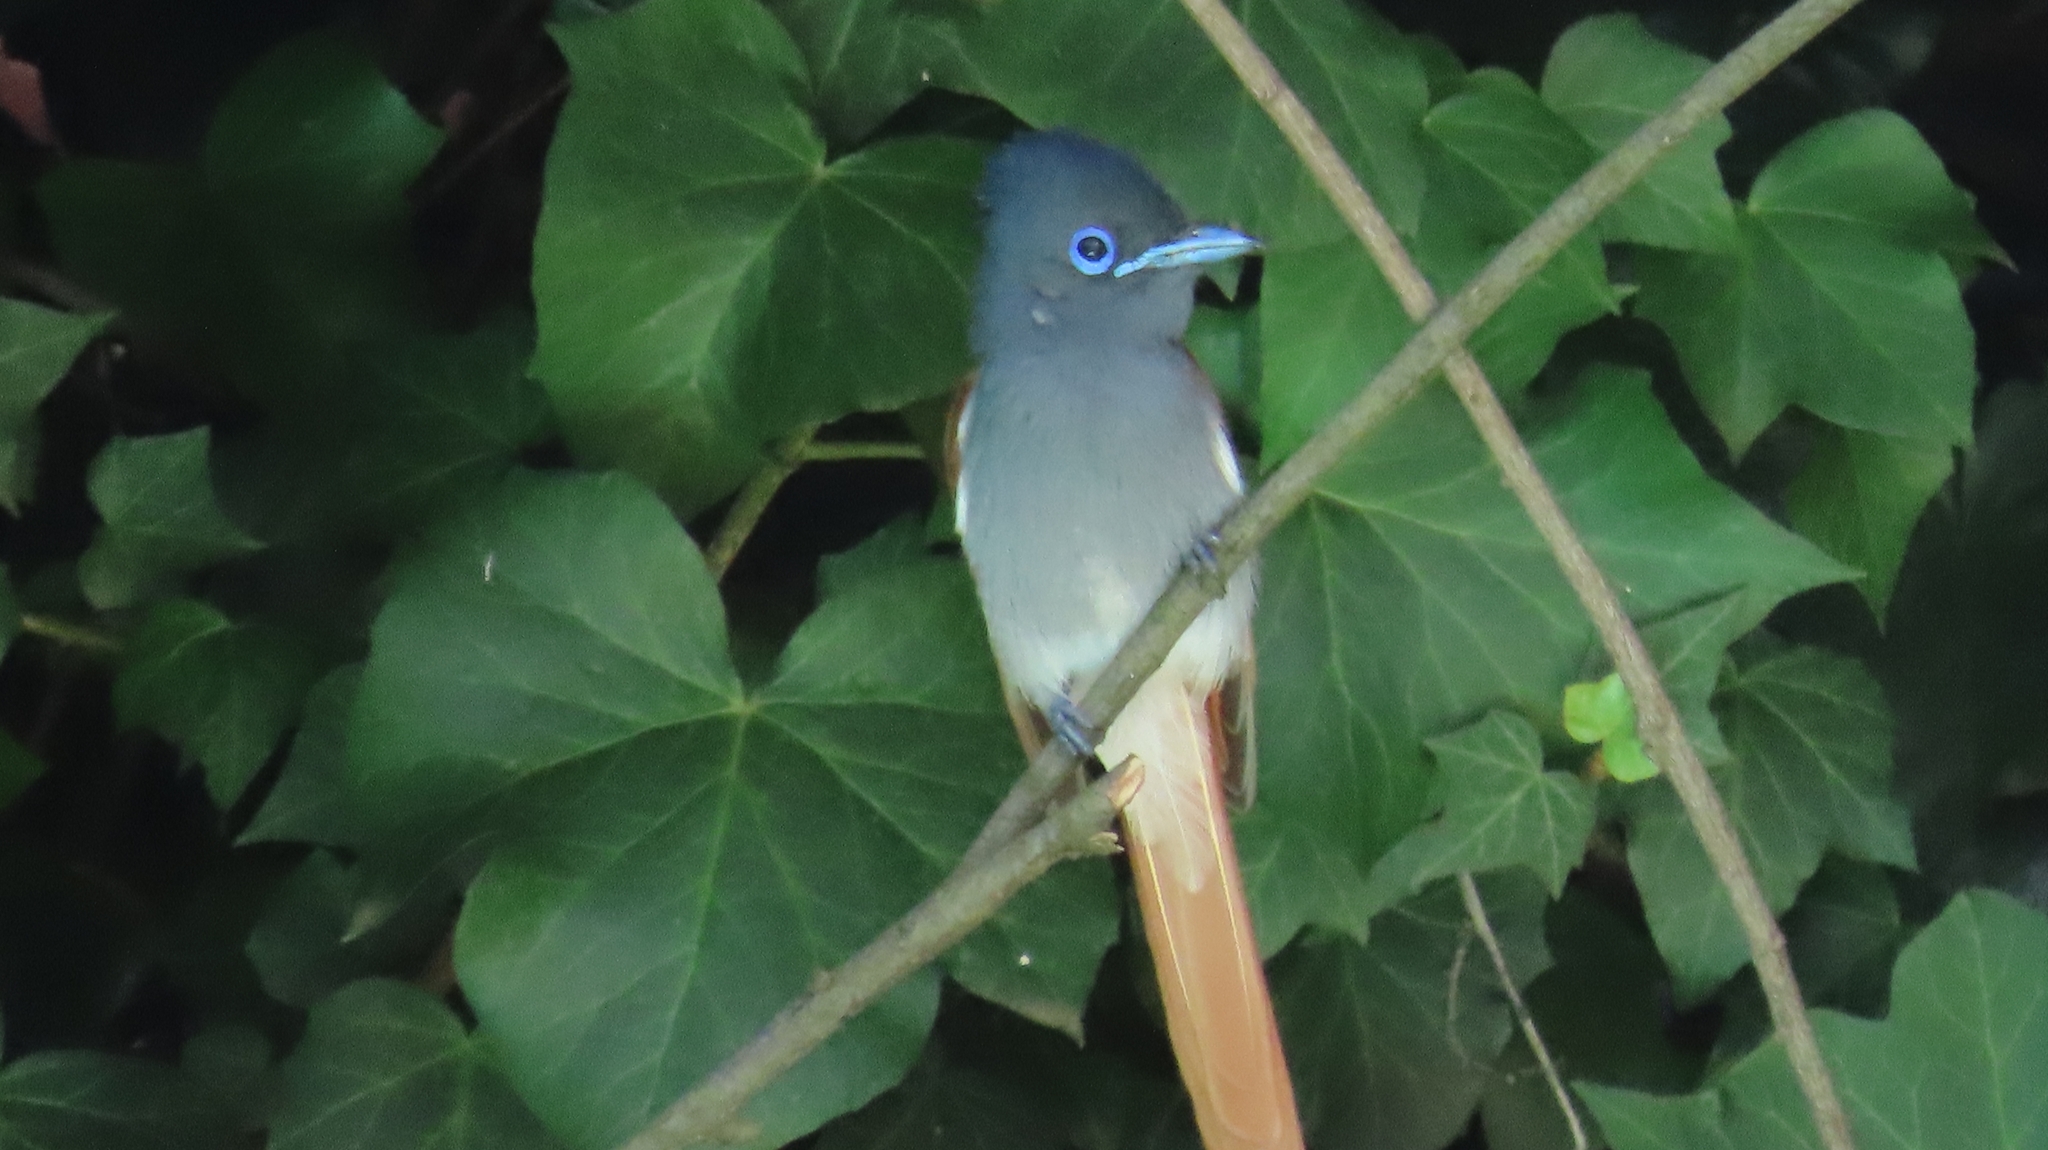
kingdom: Animalia
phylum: Chordata
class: Aves
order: Passeriformes
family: Monarchidae
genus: Terpsiphone
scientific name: Terpsiphone viridis
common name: African paradise flycatcher
